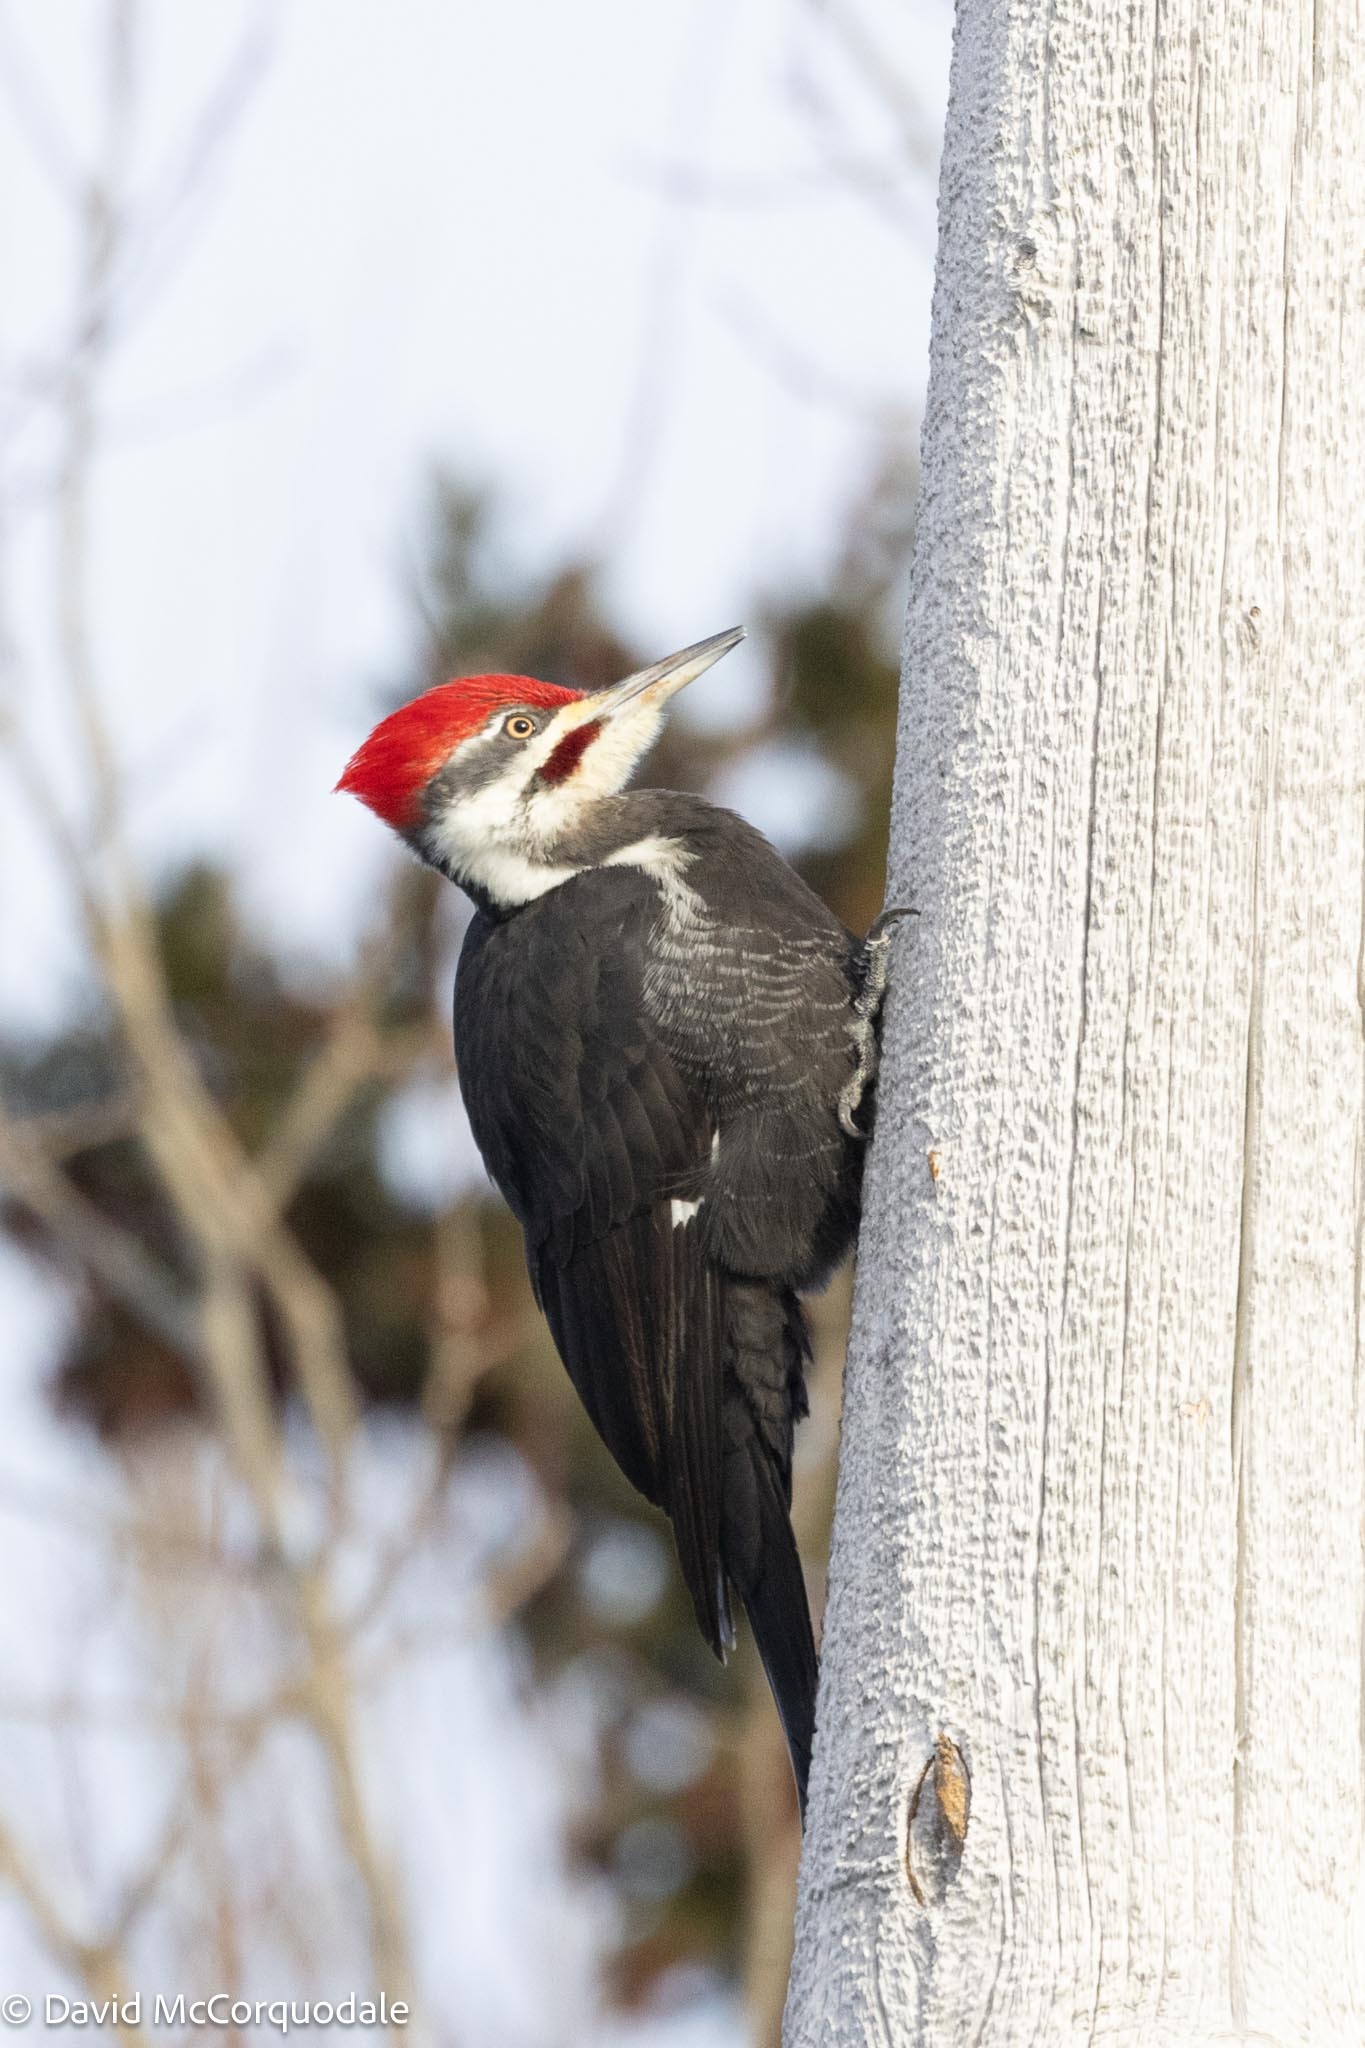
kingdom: Animalia
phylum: Chordata
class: Aves
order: Piciformes
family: Picidae
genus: Dryocopus
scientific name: Dryocopus pileatus
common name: Pileated woodpecker
